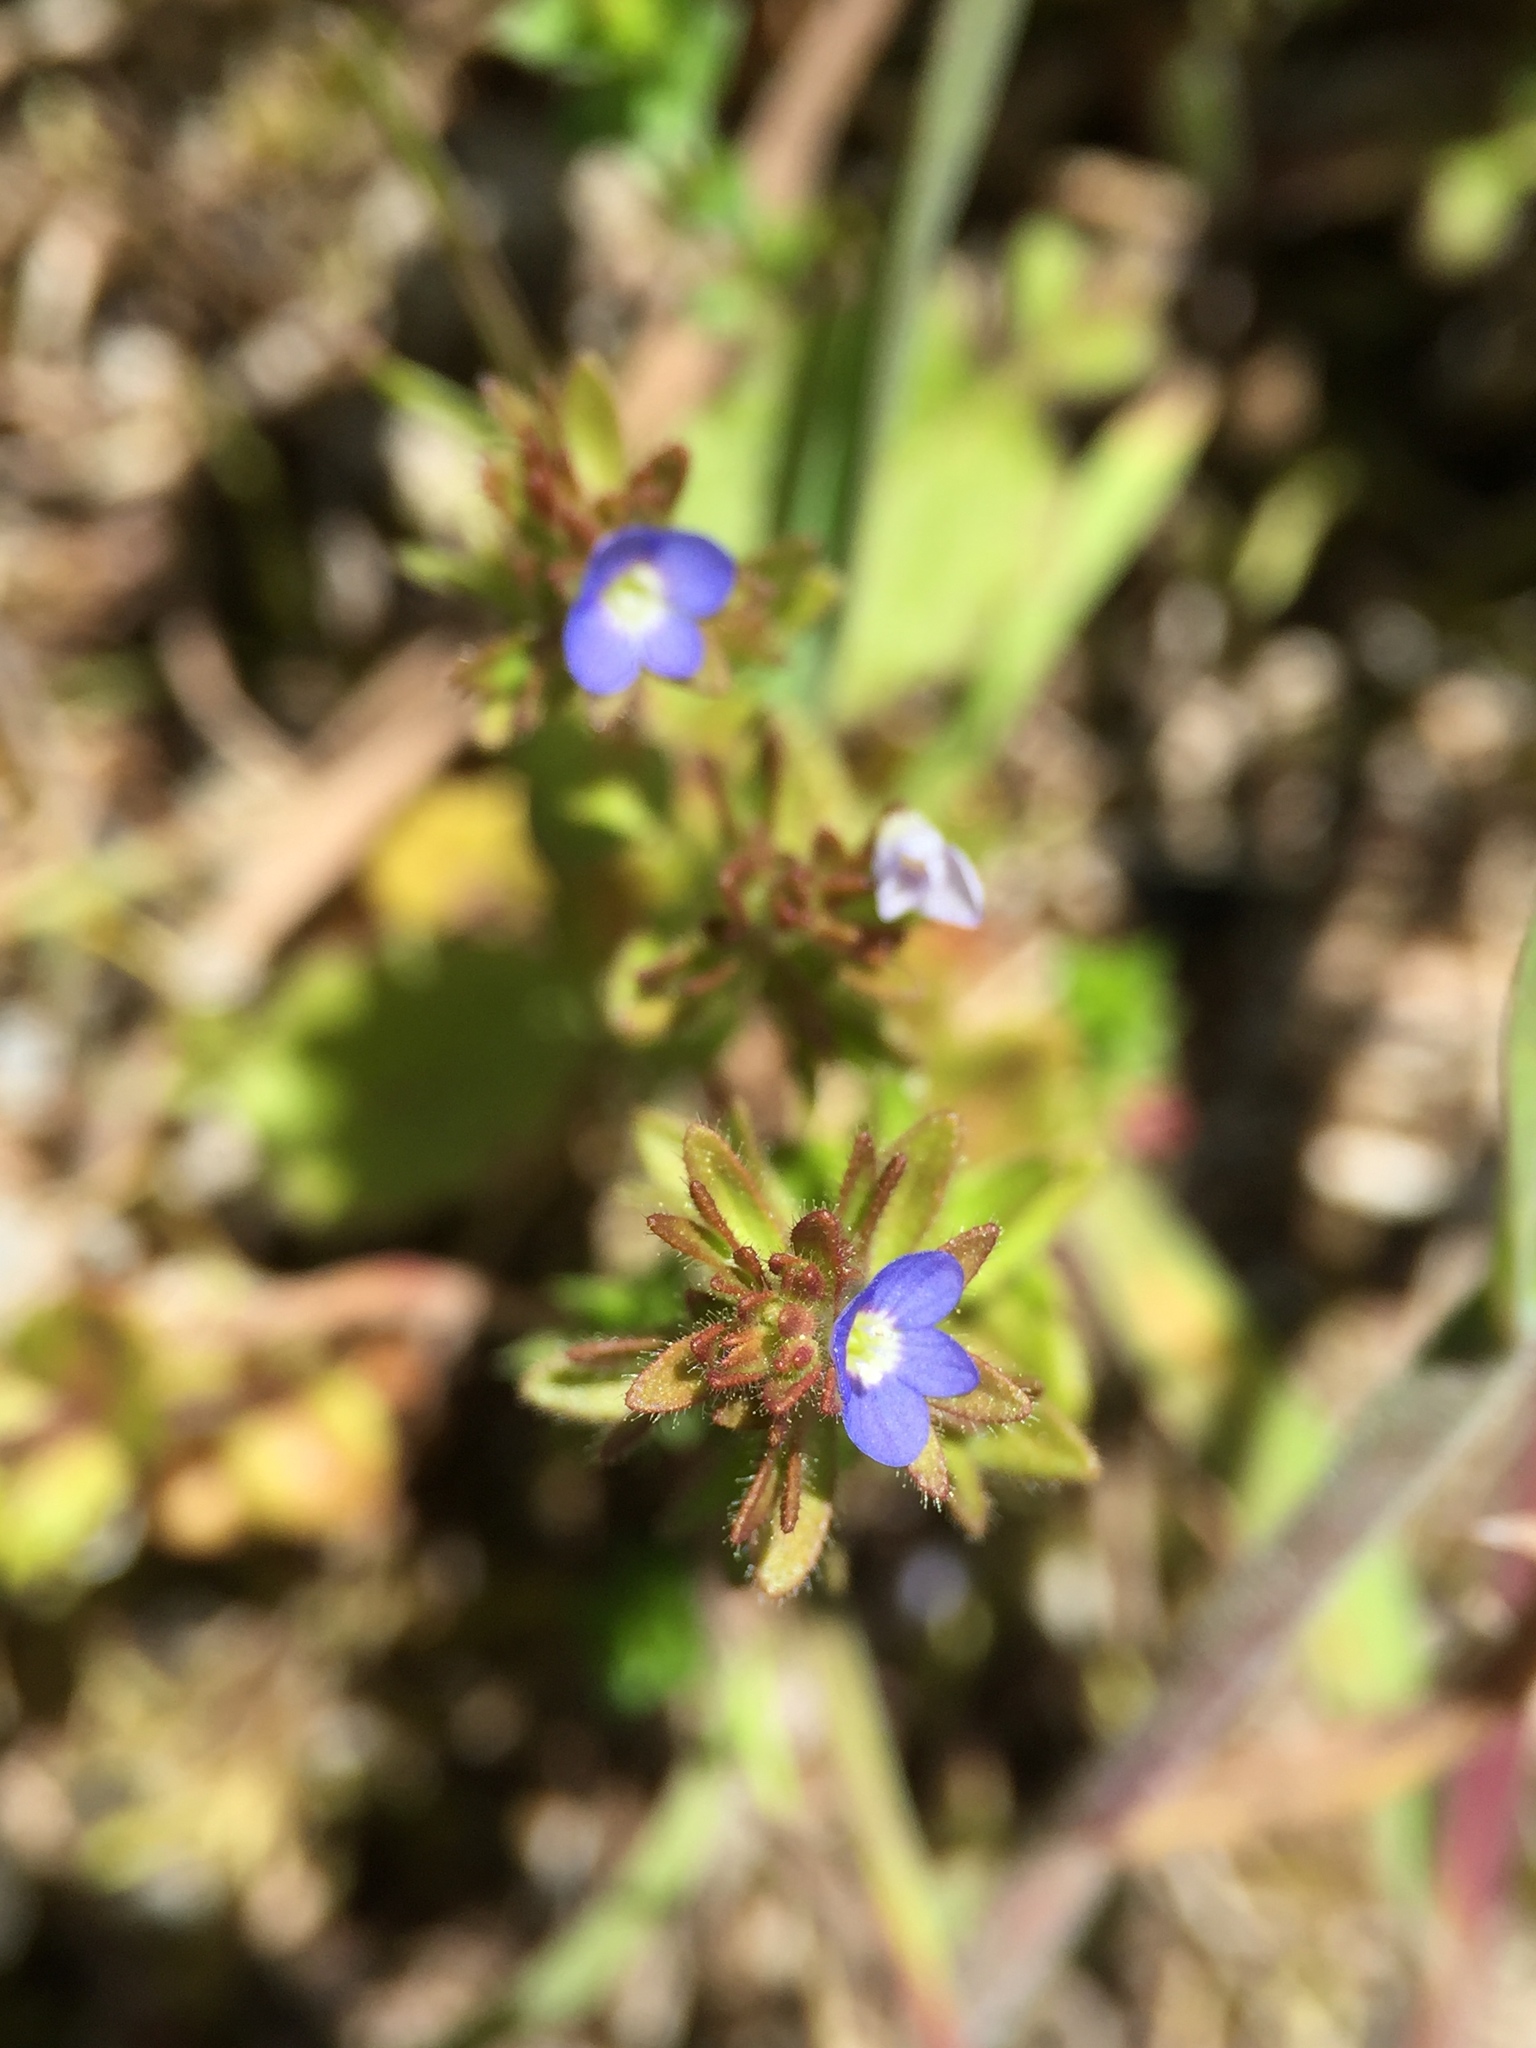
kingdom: Plantae
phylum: Tracheophyta
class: Magnoliopsida
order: Lamiales
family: Plantaginaceae
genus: Veronica
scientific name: Veronica arvensis
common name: Corn speedwell
